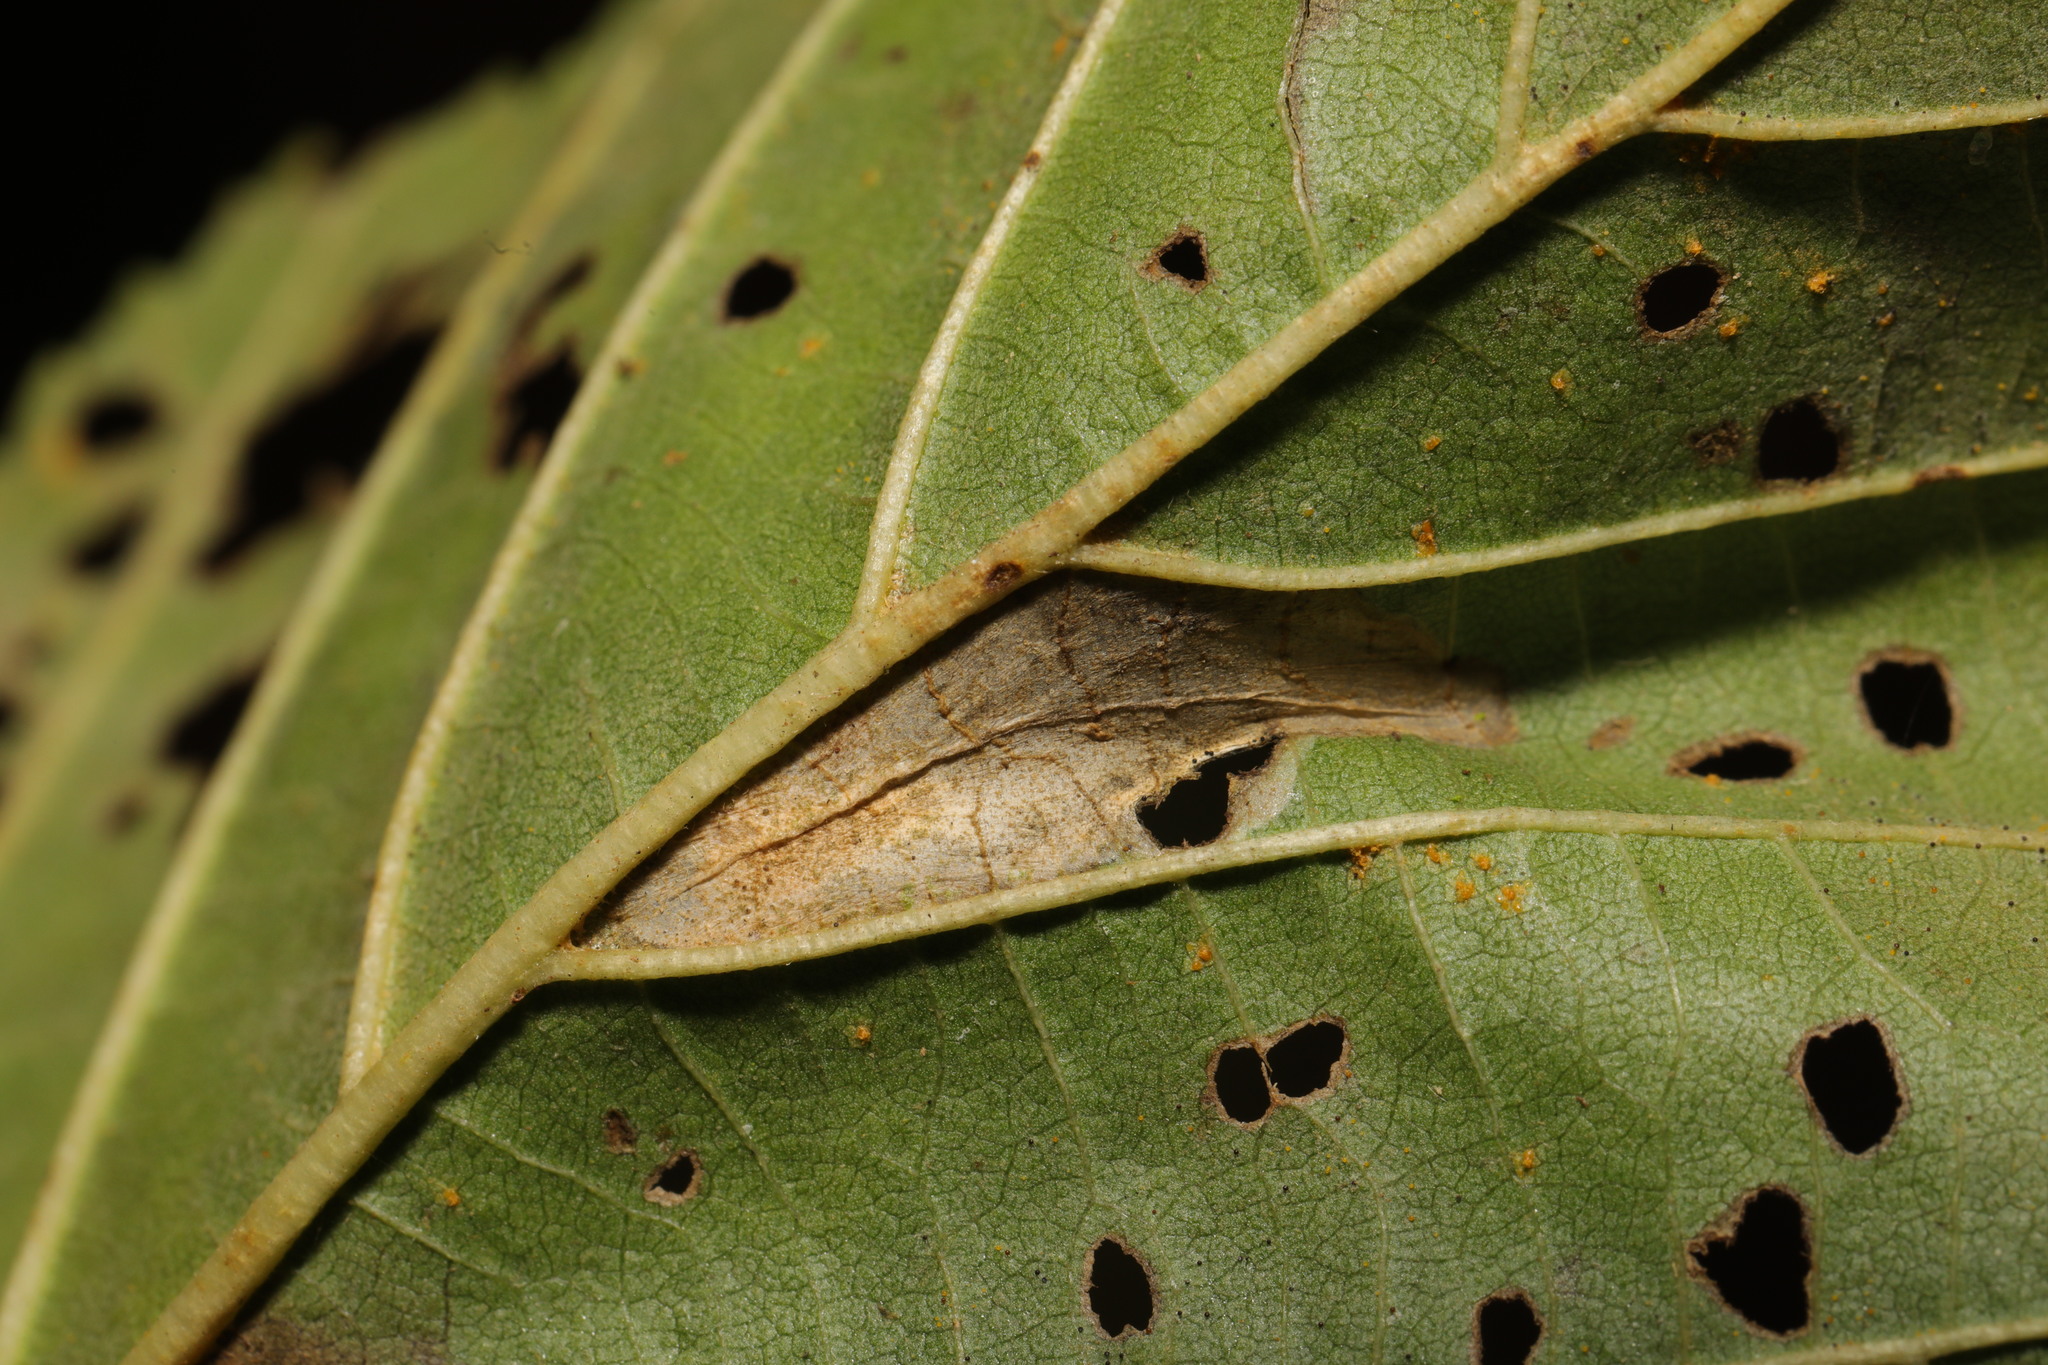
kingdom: Animalia
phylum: Arthropoda
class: Insecta
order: Lepidoptera
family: Gracillariidae
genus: Phyllonorycter
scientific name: Phyllonorycter rajella
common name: Common alder midget
